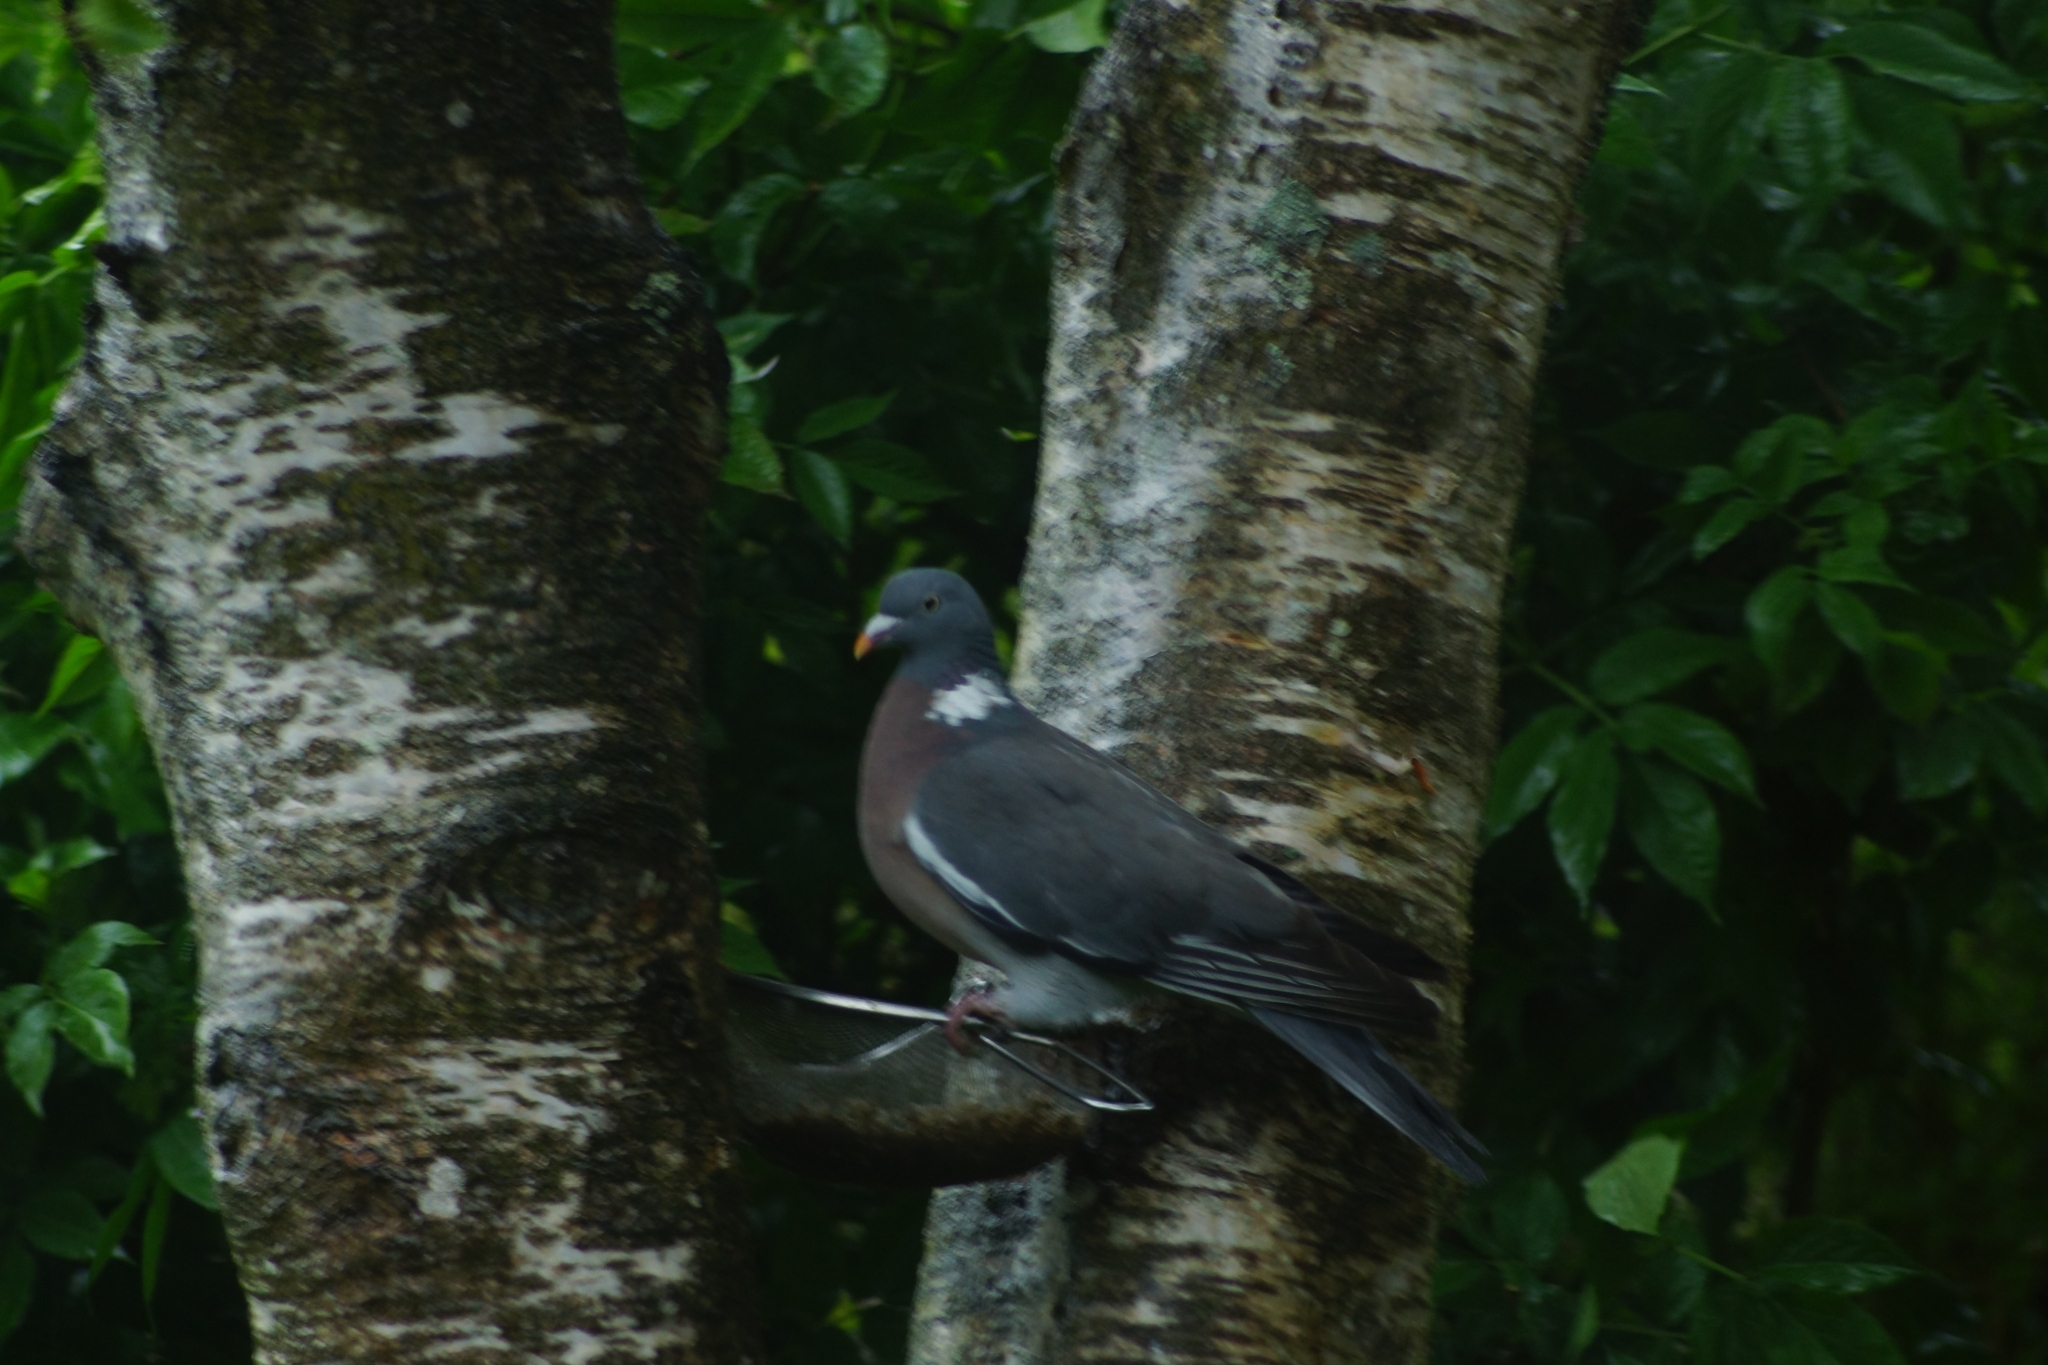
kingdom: Animalia
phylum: Chordata
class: Aves
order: Columbiformes
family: Columbidae
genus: Columba
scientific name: Columba palumbus
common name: Common wood pigeon
